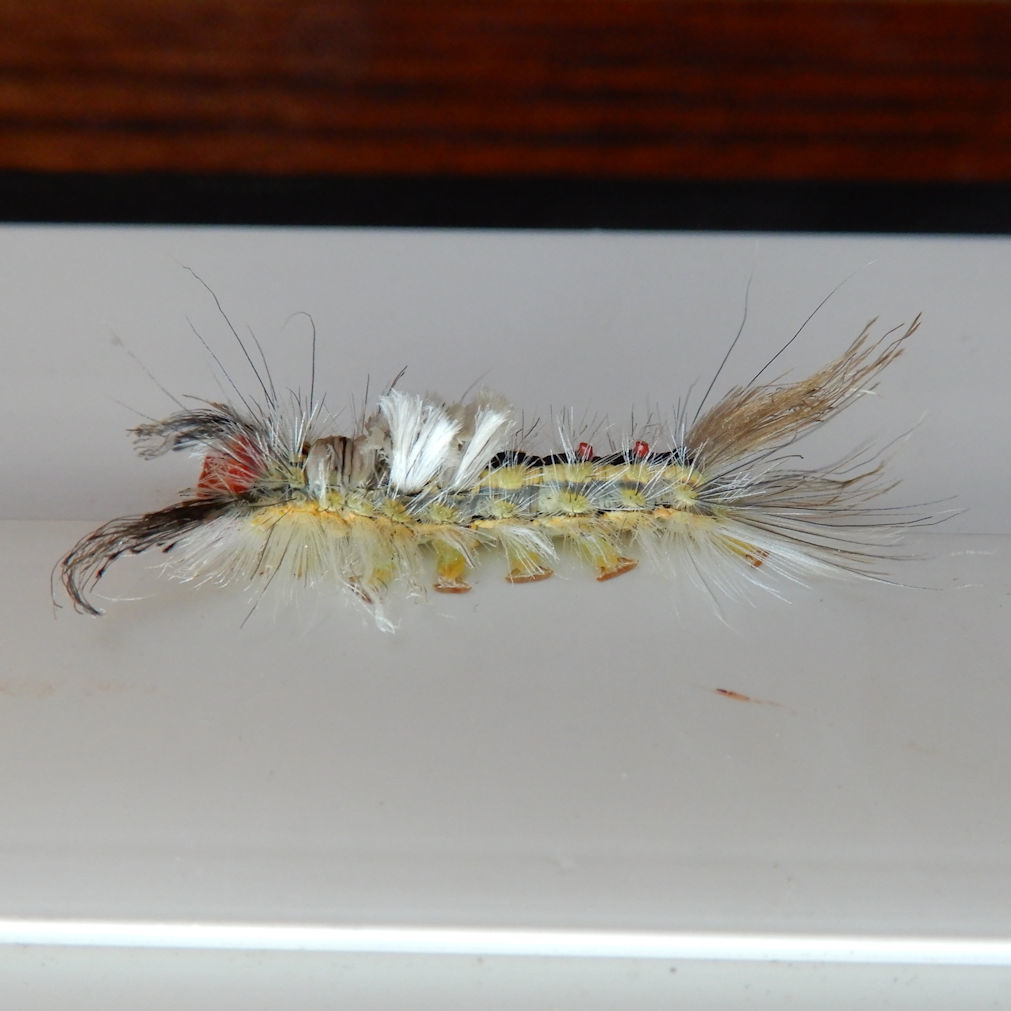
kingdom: Animalia
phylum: Arthropoda
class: Insecta
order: Lepidoptera
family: Erebidae
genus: Orgyia
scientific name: Orgyia leucostigma
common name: White-marked tussock moth
